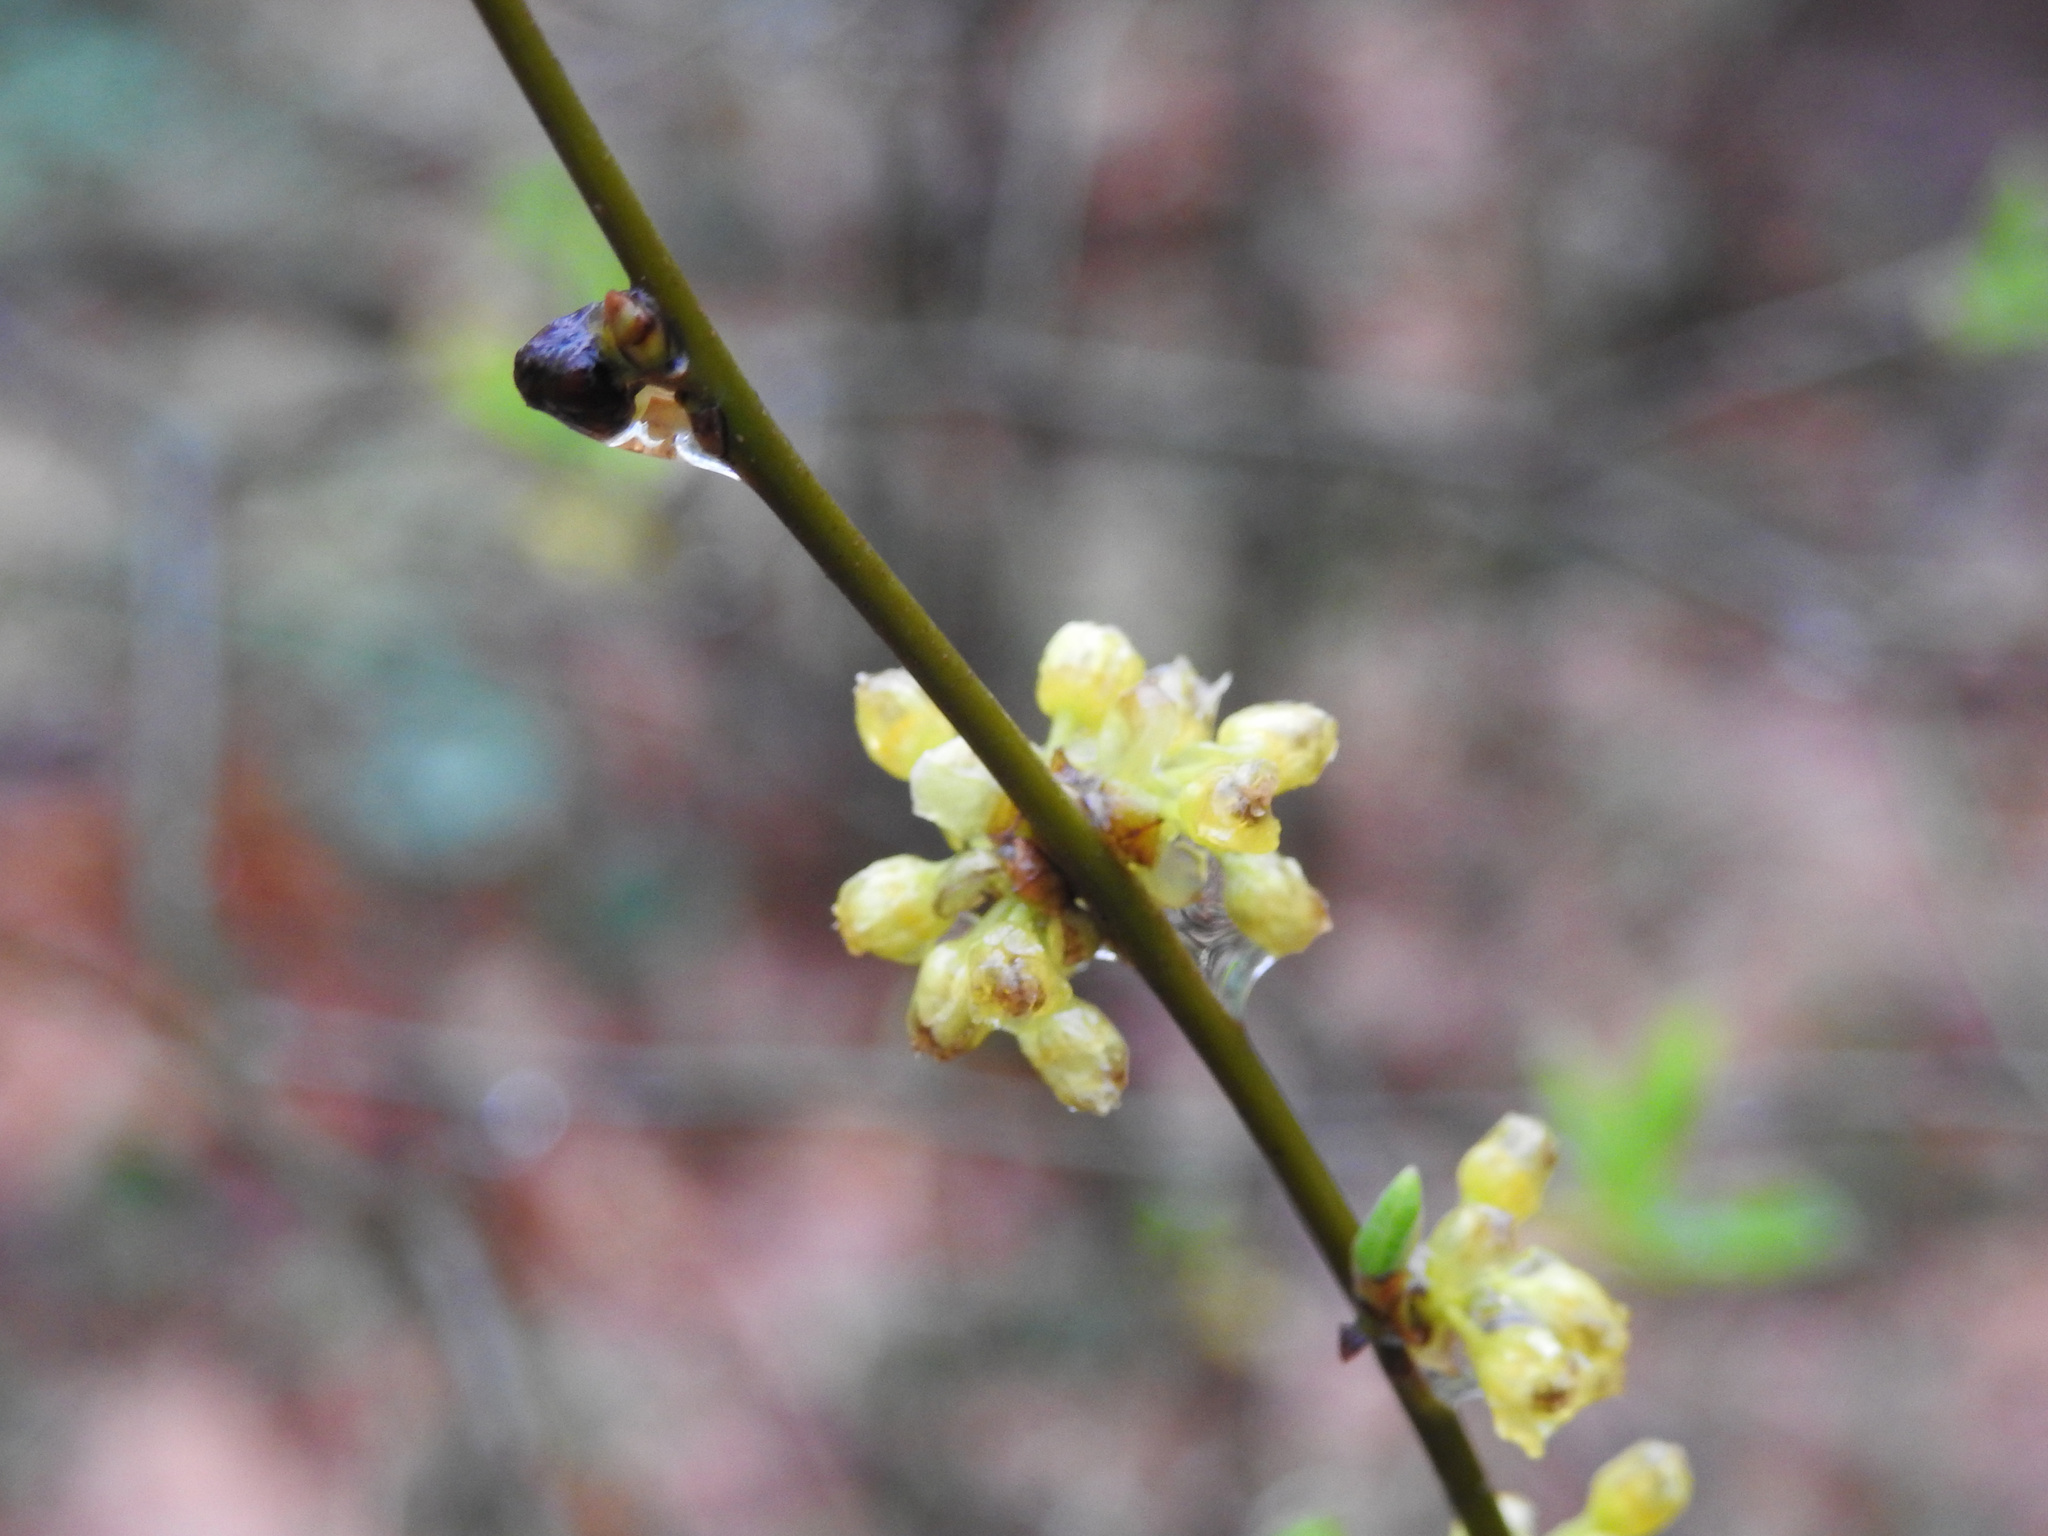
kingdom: Plantae
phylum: Tracheophyta
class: Magnoliopsida
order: Laurales
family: Lauraceae
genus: Lindera
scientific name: Lindera benzoin
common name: Spicebush
